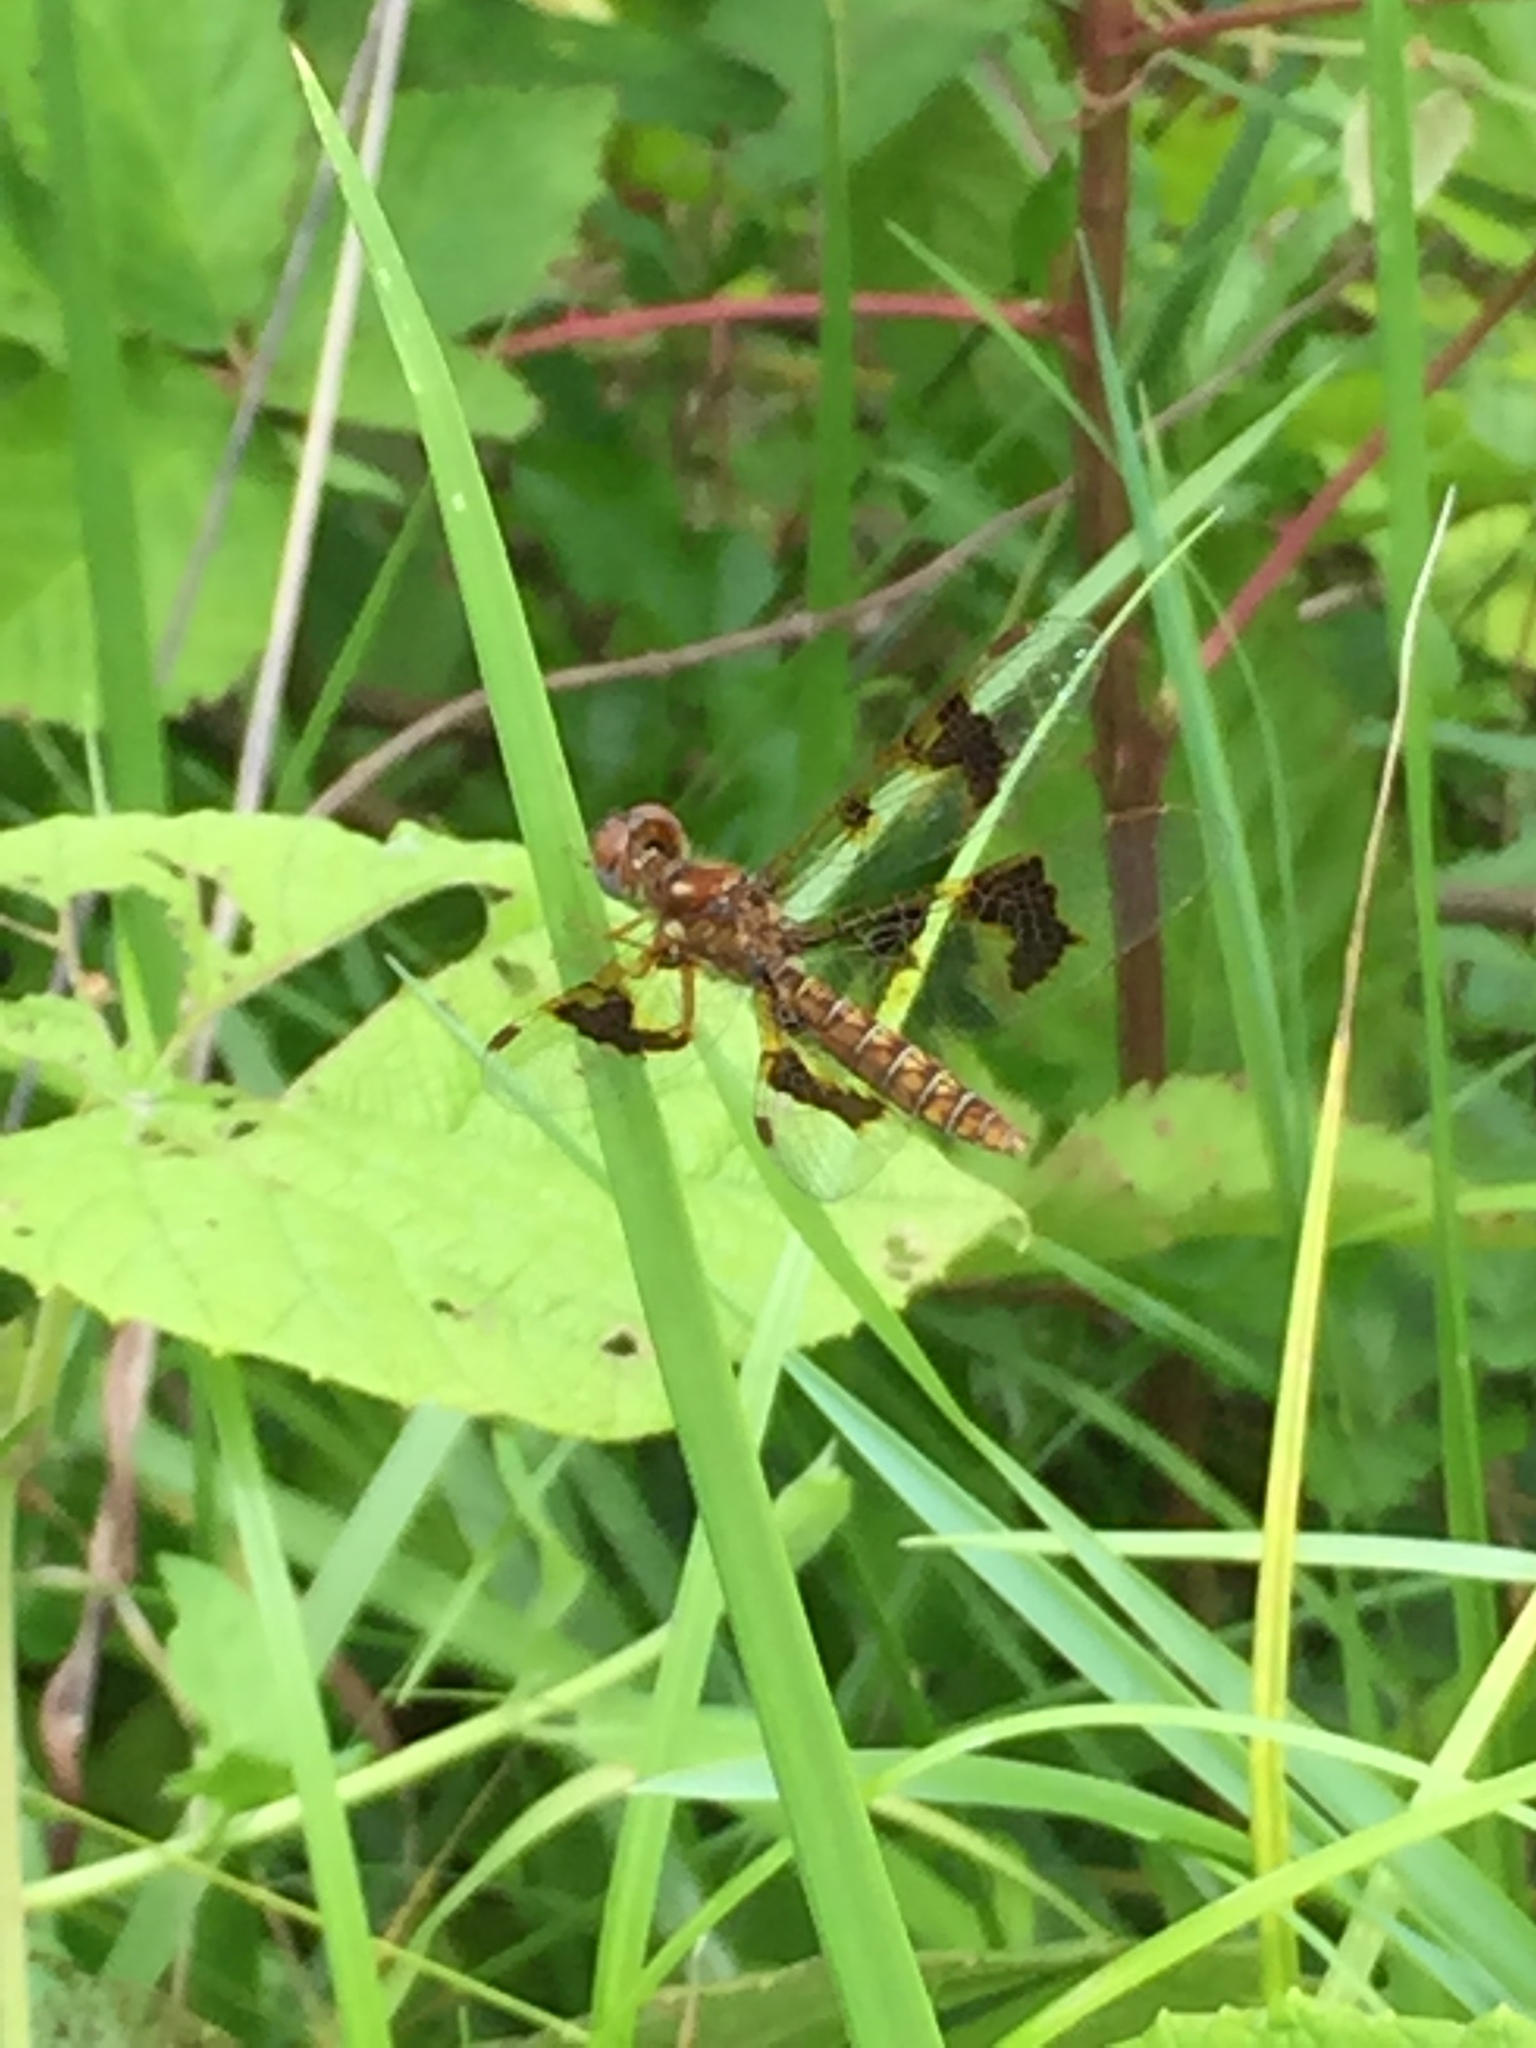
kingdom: Animalia
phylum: Arthropoda
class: Insecta
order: Odonata
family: Libellulidae
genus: Perithemis
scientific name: Perithemis tenera
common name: Eastern amberwing
